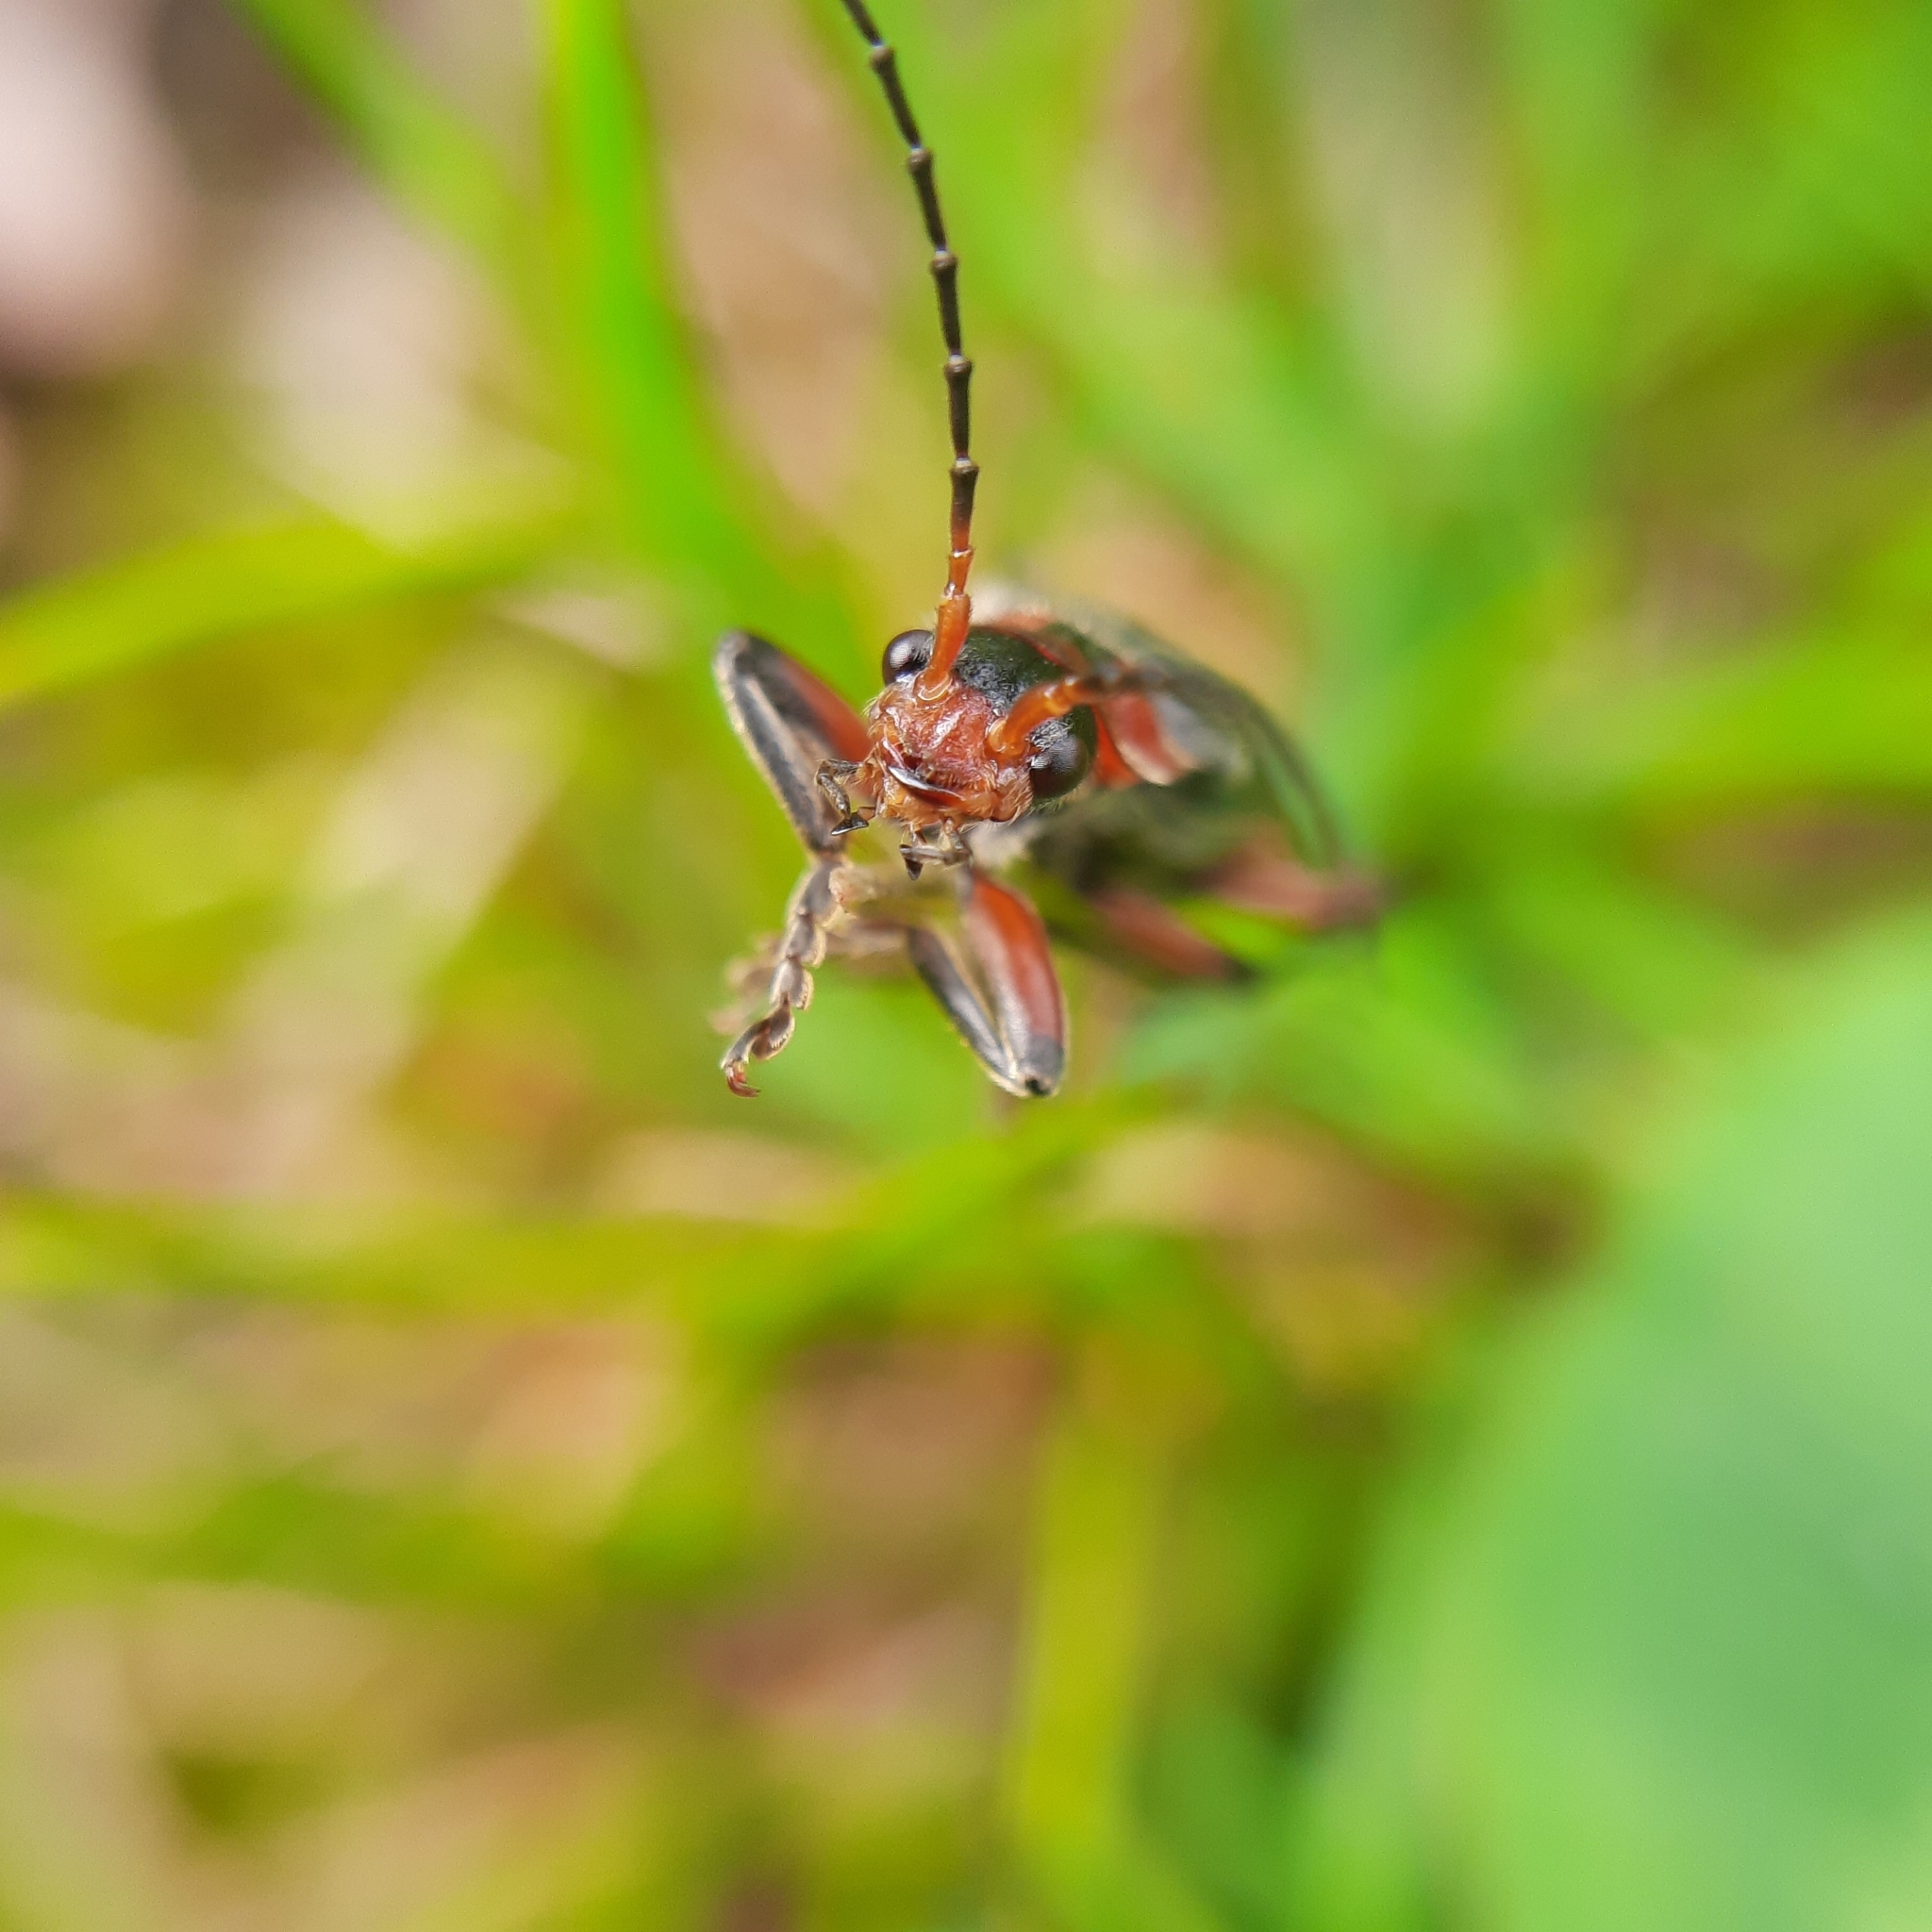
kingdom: Animalia
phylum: Arthropoda
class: Insecta
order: Coleoptera
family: Cantharidae
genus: Cantharis
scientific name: Cantharis rustica
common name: Soldier beetle
